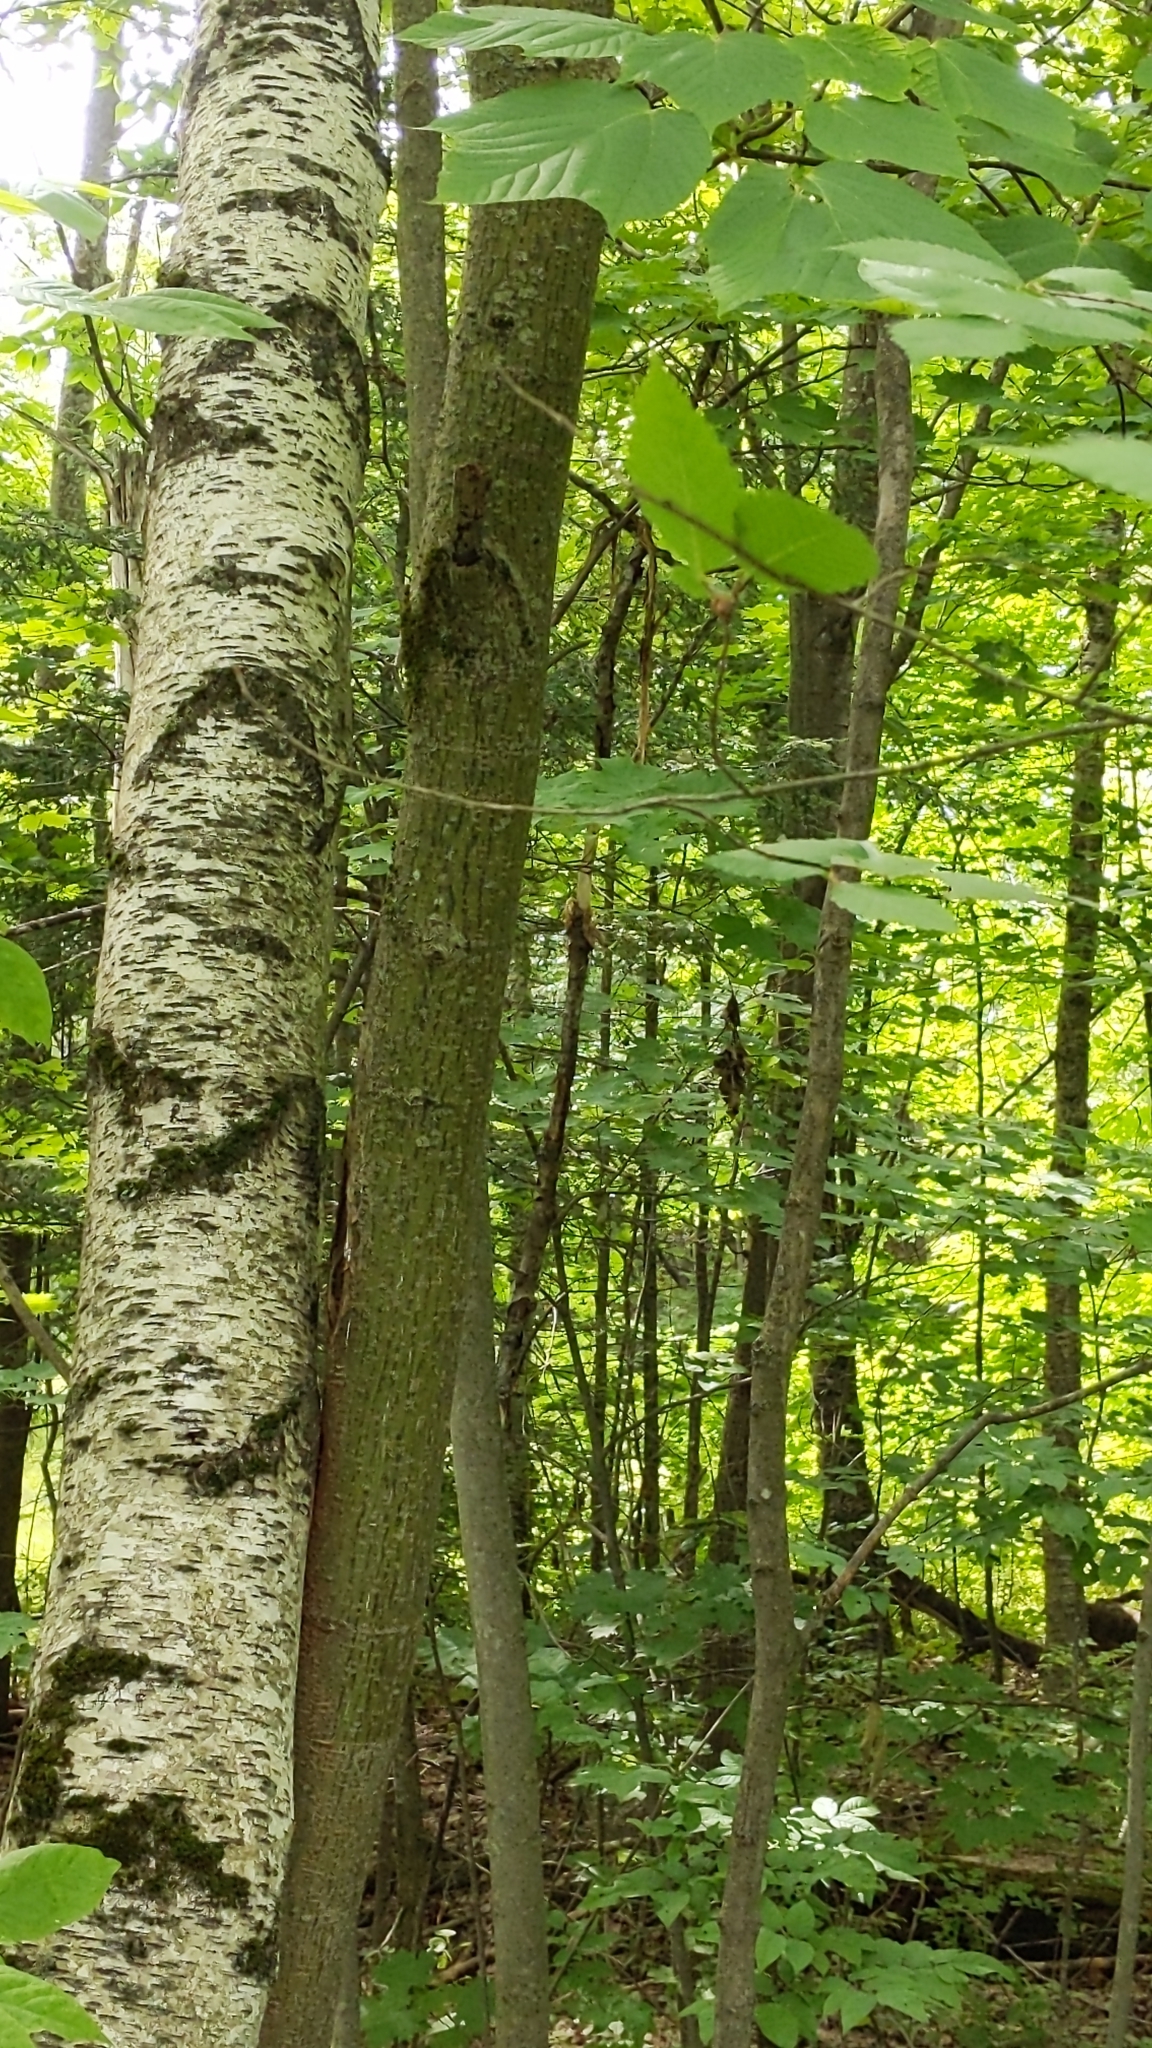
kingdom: Plantae
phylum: Tracheophyta
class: Magnoliopsida
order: Sapindales
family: Sapindaceae
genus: Acer
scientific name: Acer pensylvanicum
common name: Moosewood
